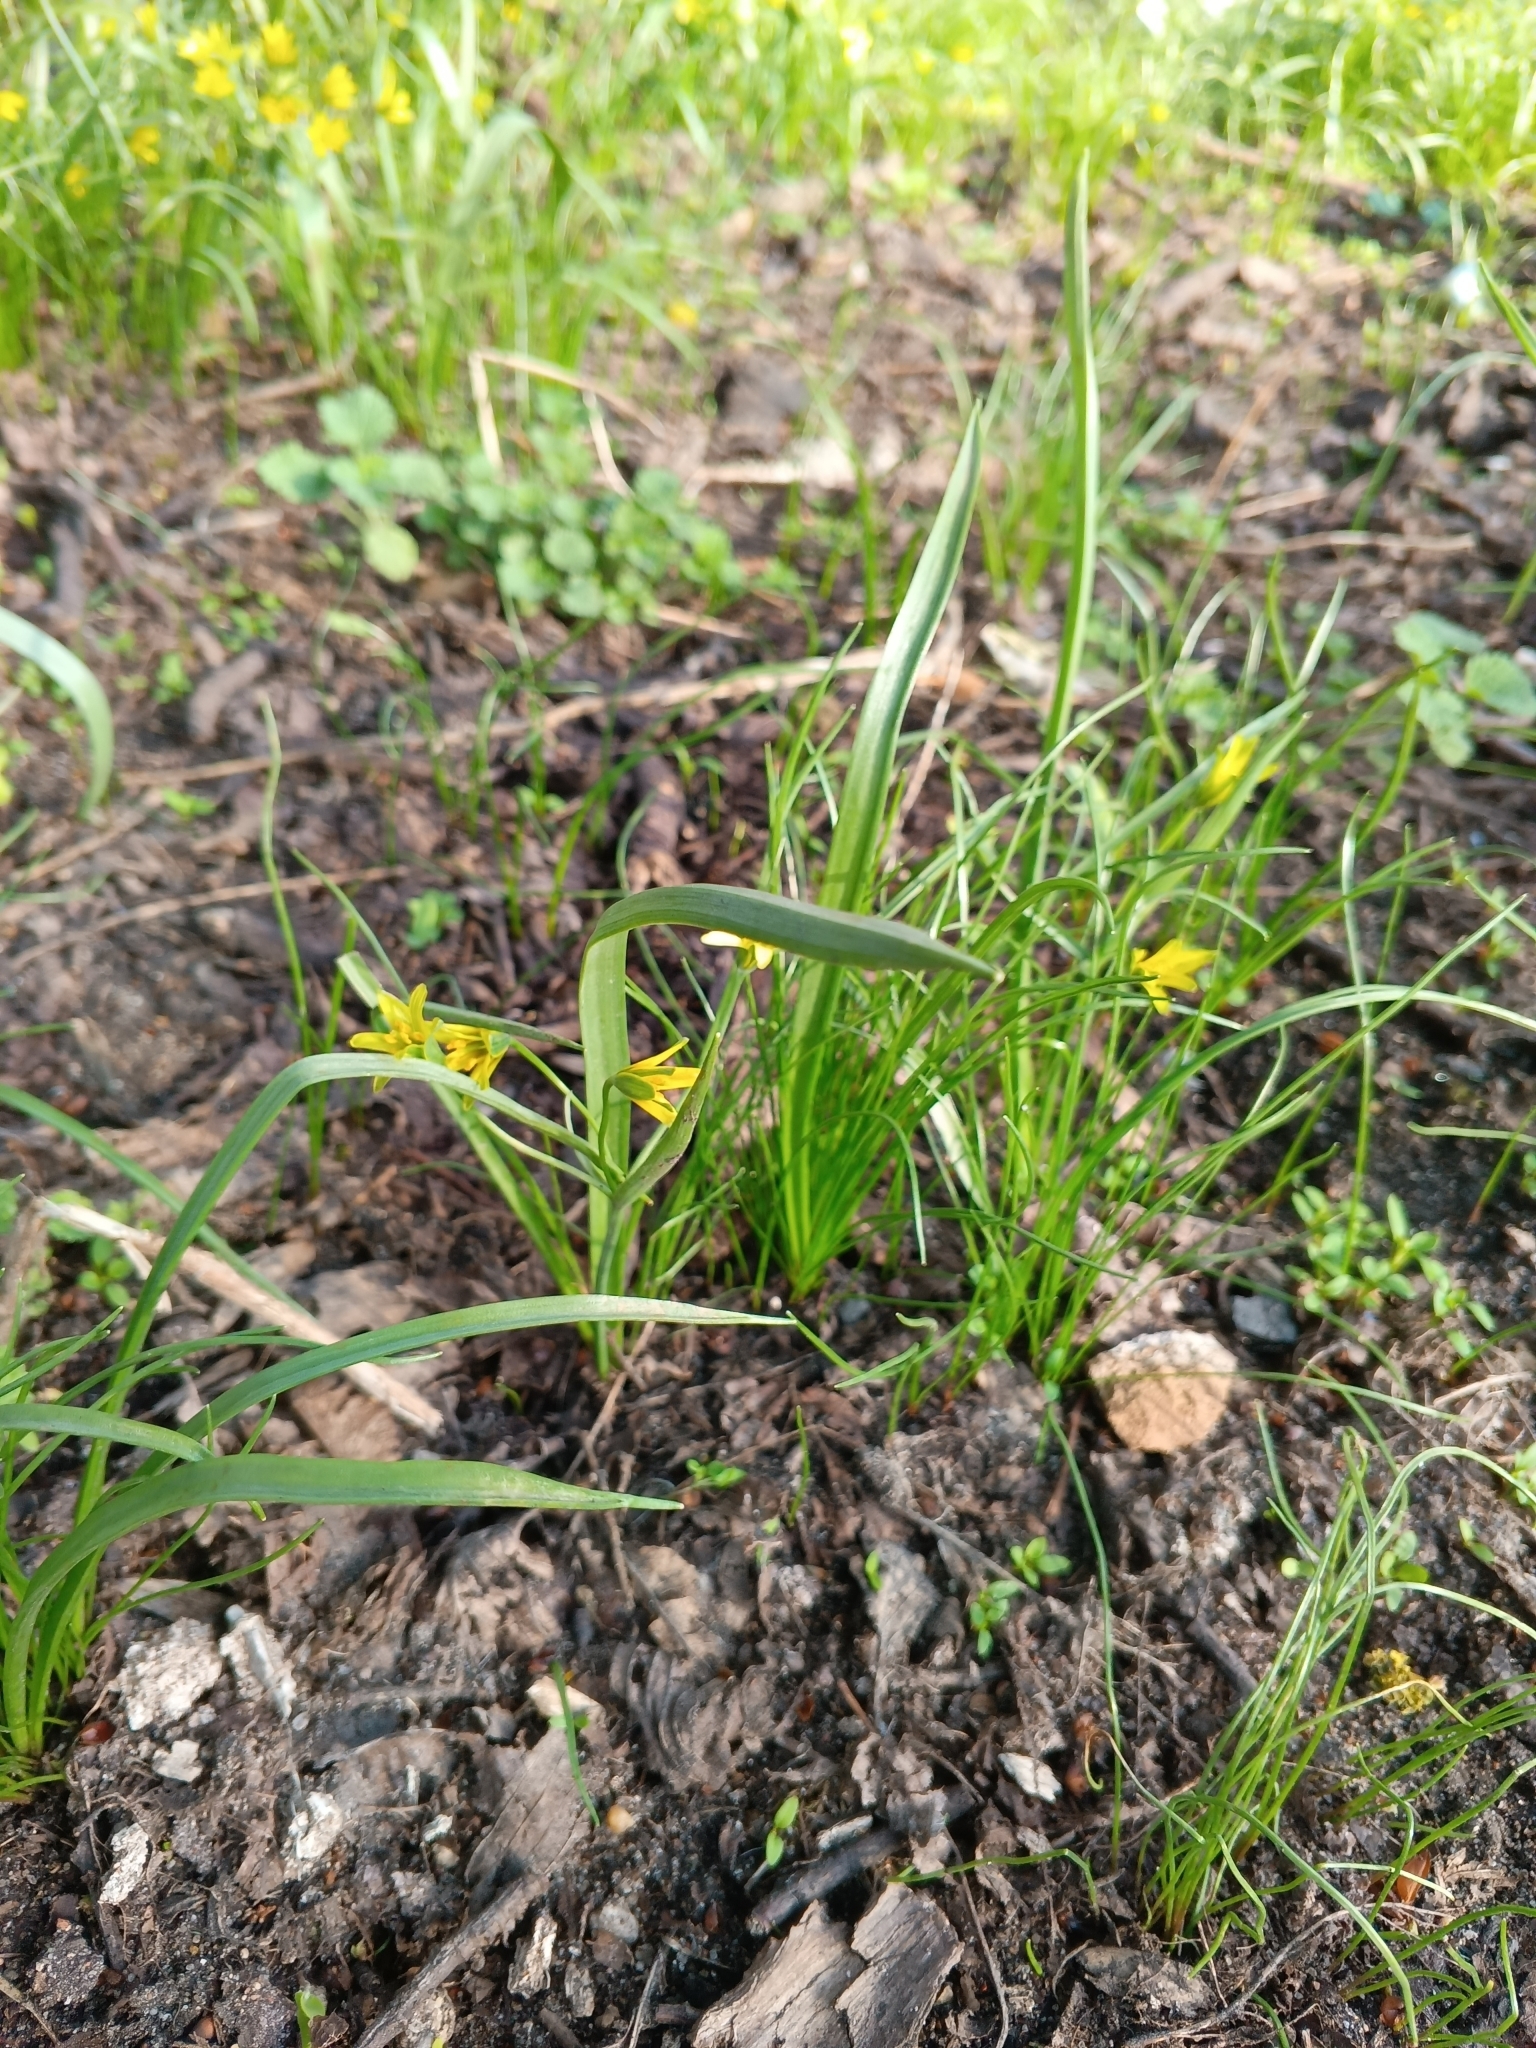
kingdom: Plantae
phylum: Tracheophyta
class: Liliopsida
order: Liliales
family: Liliaceae
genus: Gagea
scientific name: Gagea lutea
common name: Yellow star-of-bethlehem
